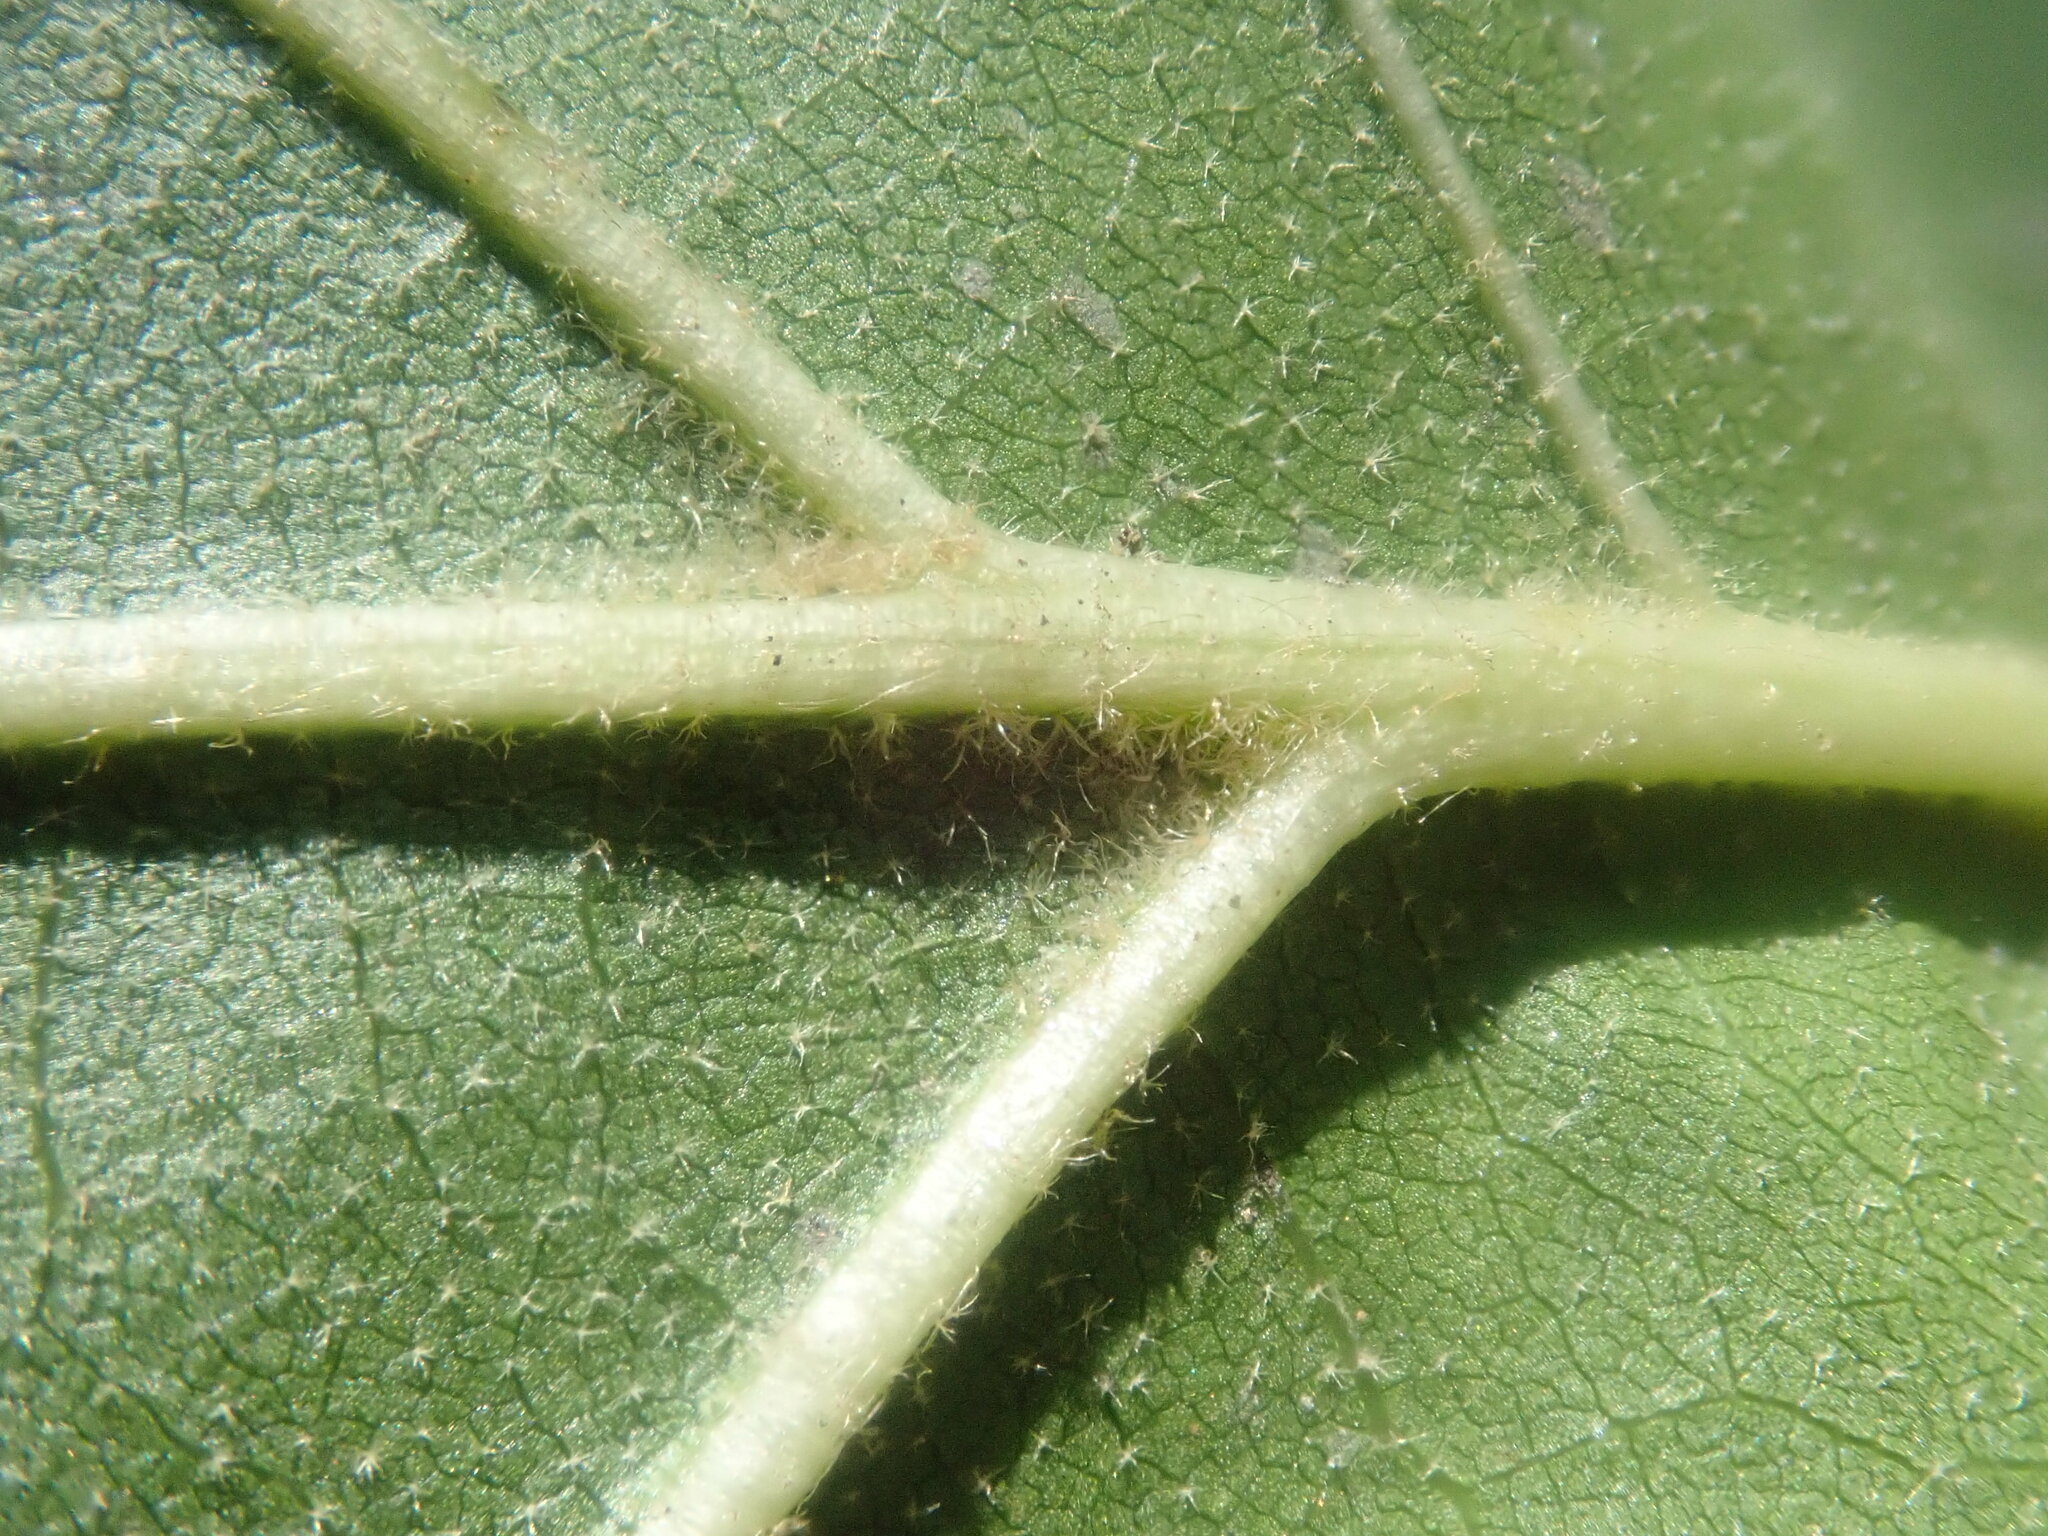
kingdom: Plantae
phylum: Tracheophyta
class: Magnoliopsida
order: Fagales
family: Fagaceae
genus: Quercus
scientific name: Quercus velutina
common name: Black oak
